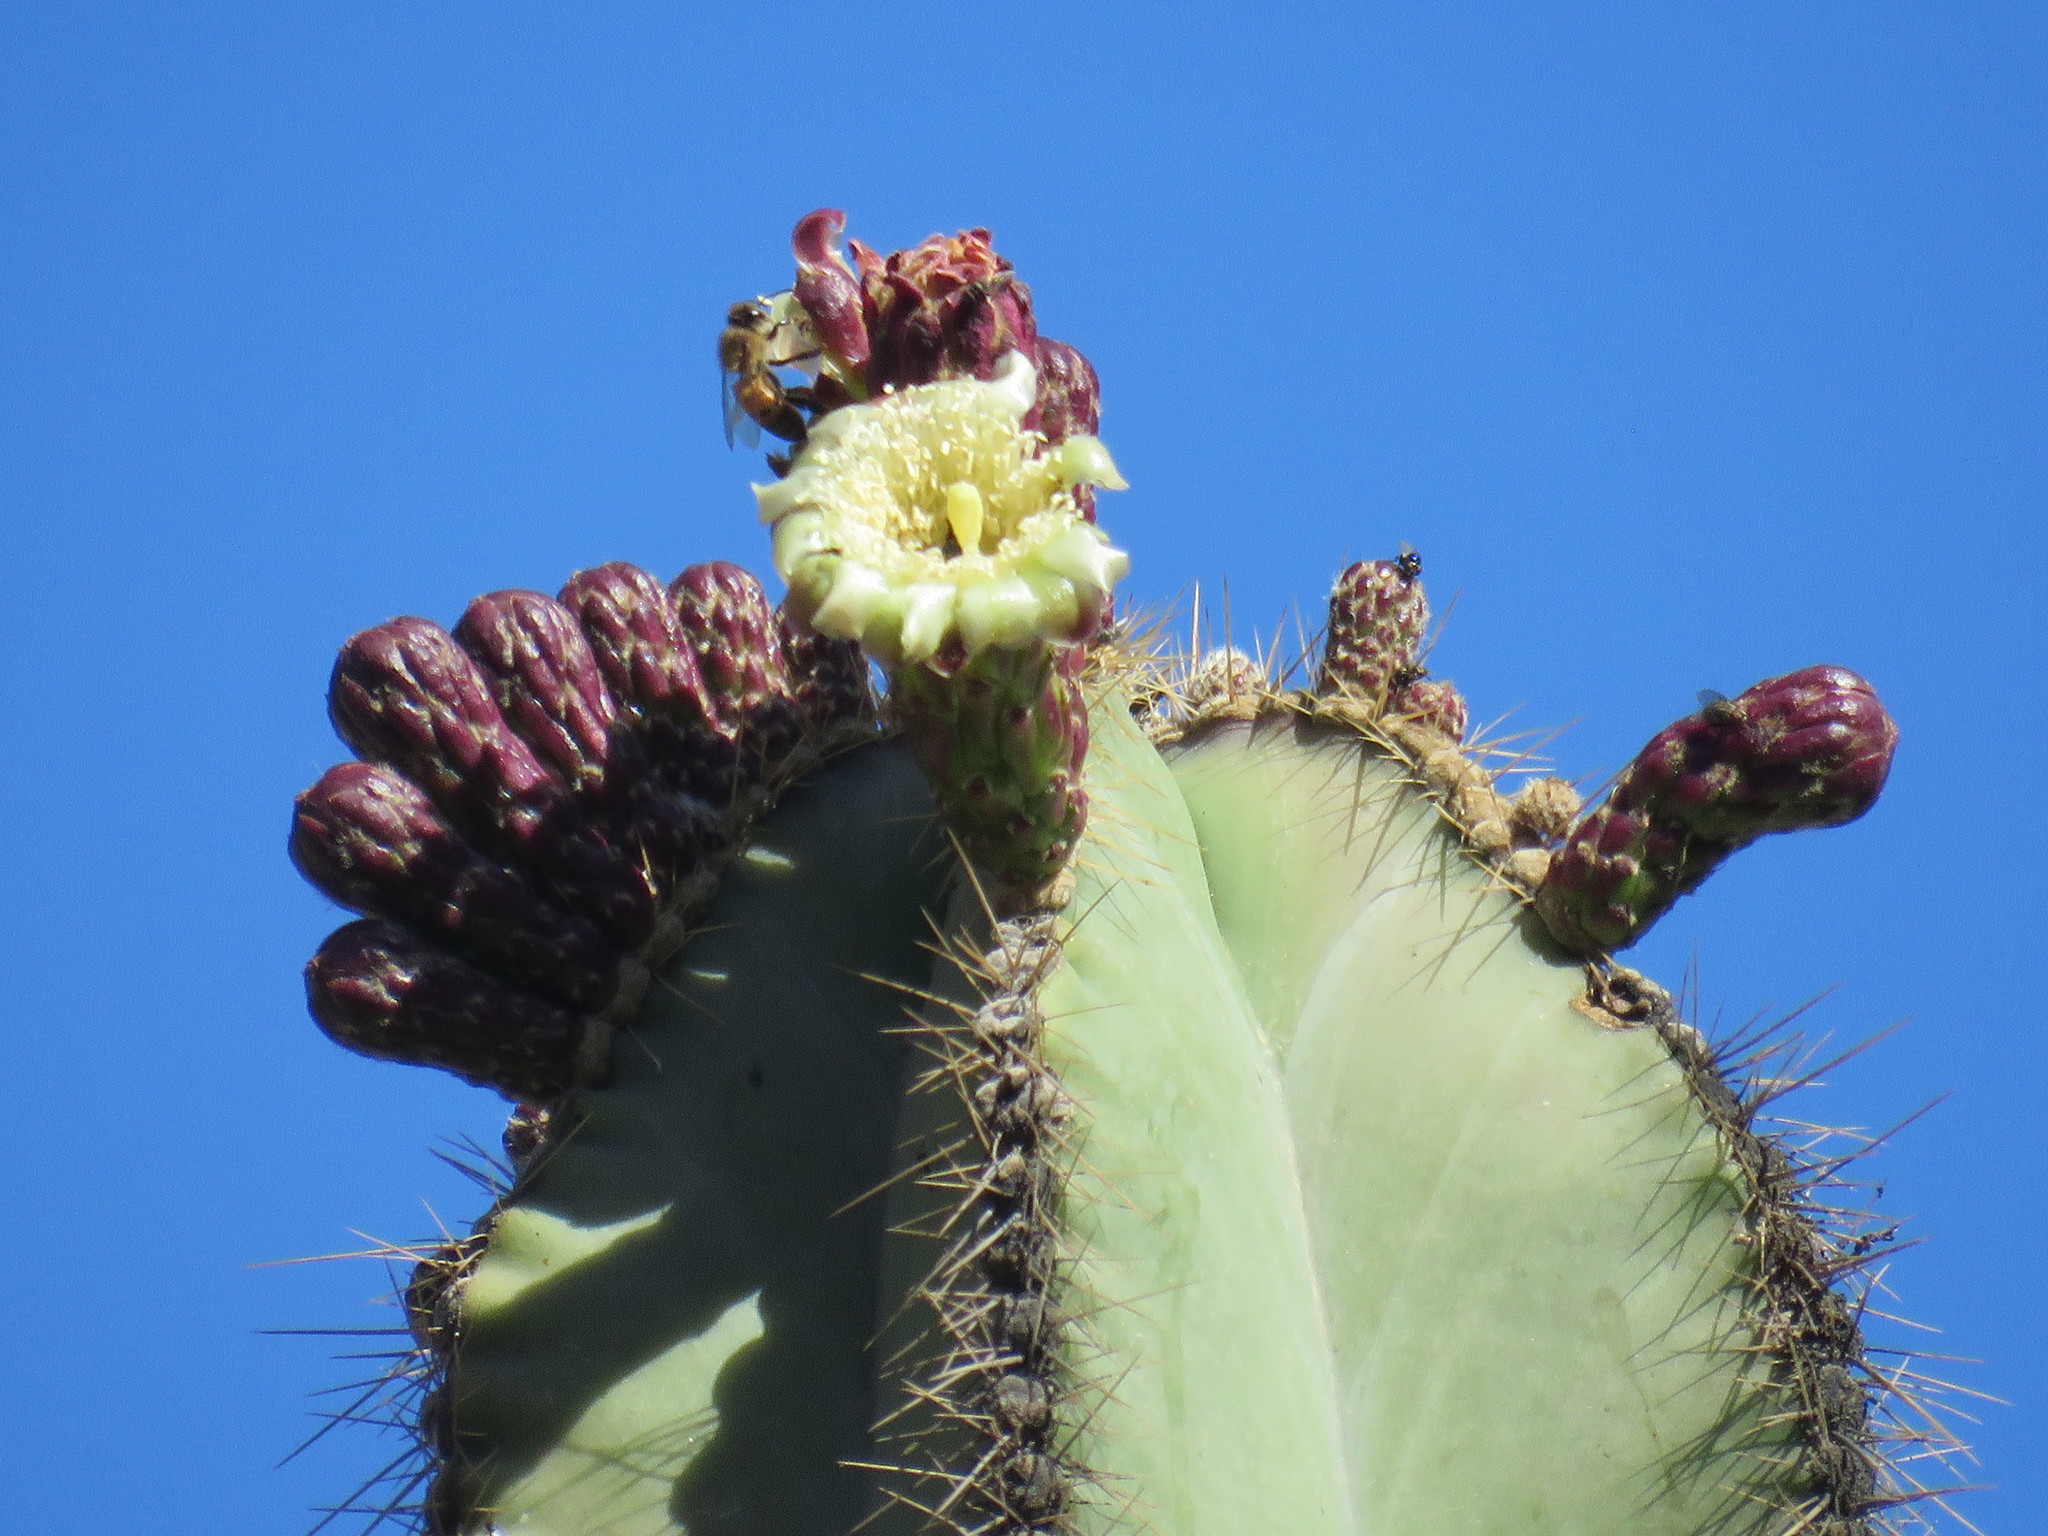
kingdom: Plantae
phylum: Tracheophyta
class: Magnoliopsida
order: Caryophyllales
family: Cactaceae
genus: Stenocereus
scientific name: Stenocereus dumortieri
